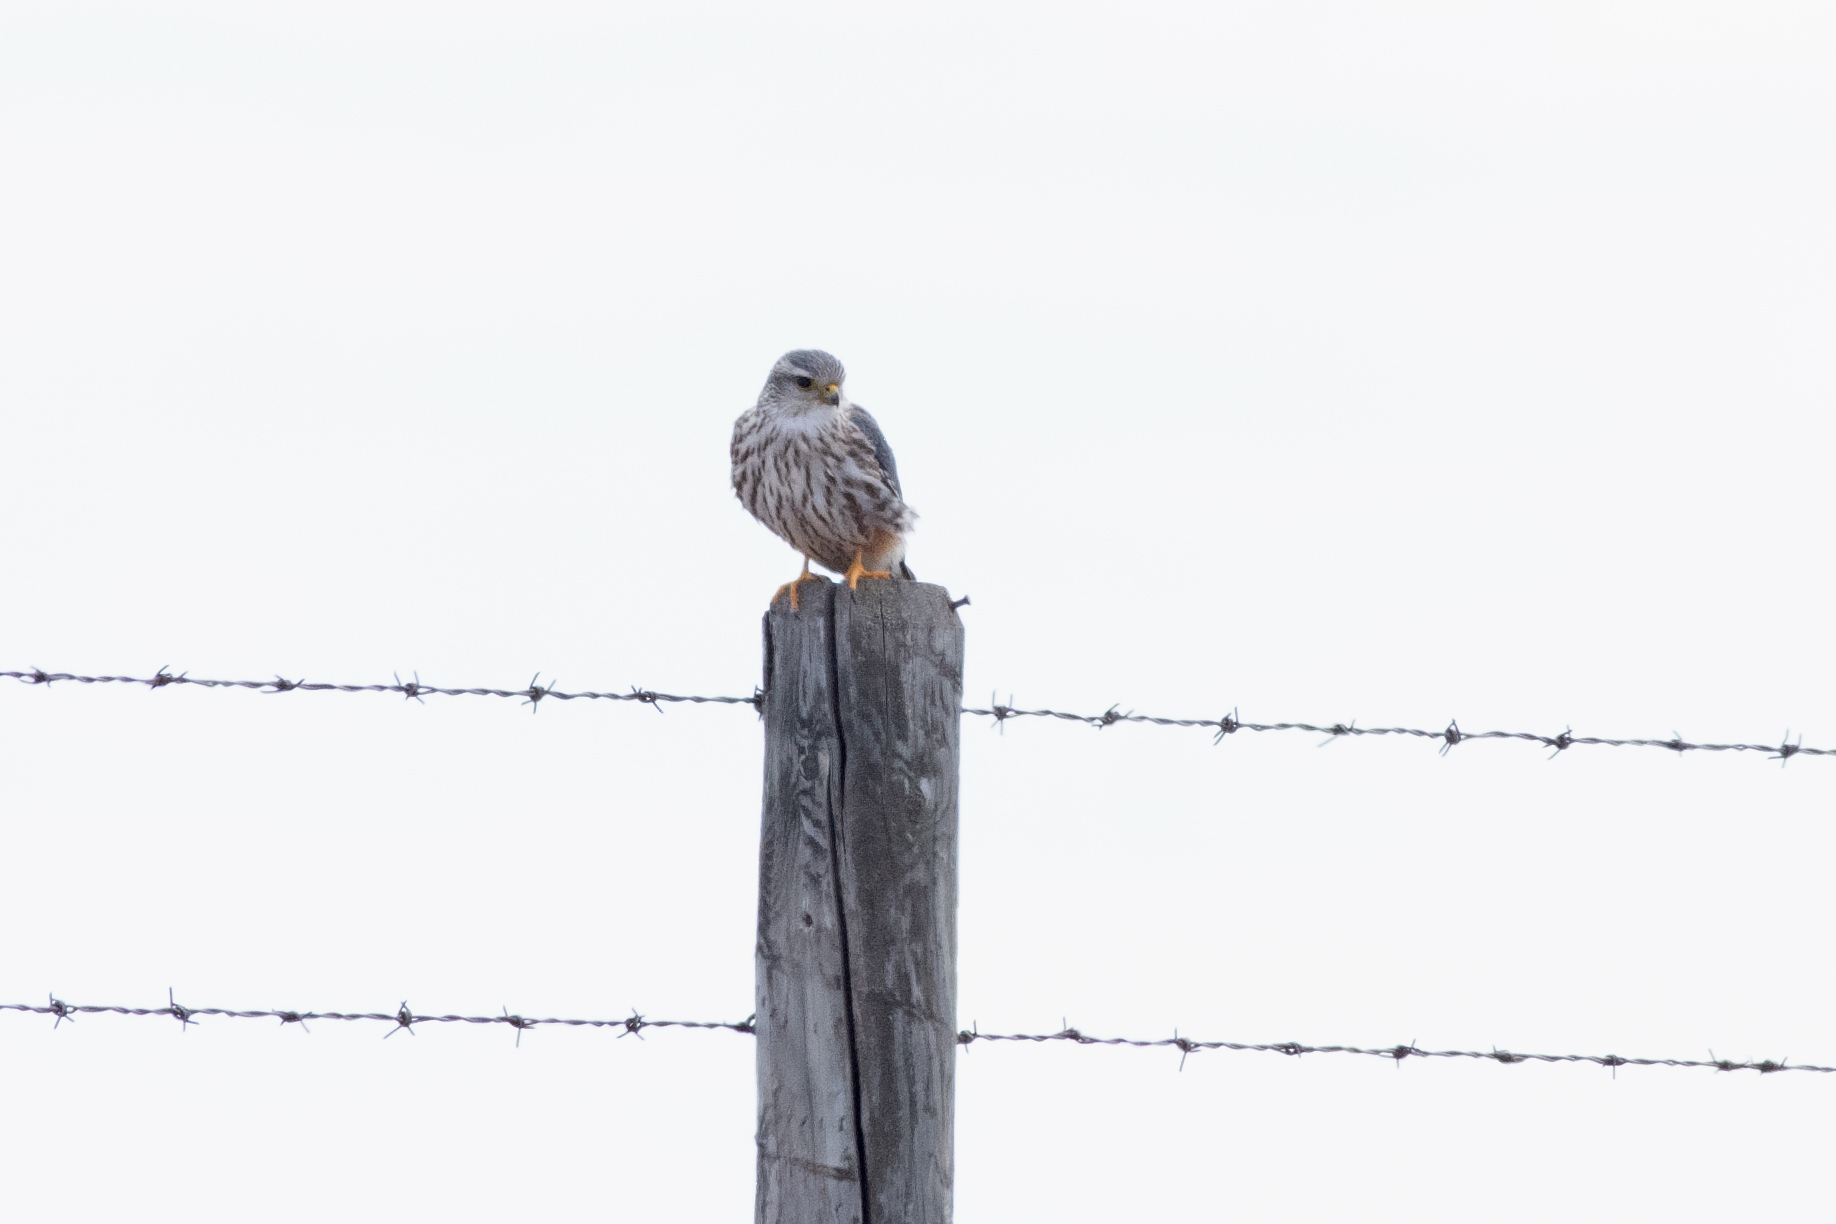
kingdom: Animalia
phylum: Chordata
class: Aves
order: Falconiformes
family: Falconidae
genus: Falco
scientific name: Falco columbarius
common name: Merlin
